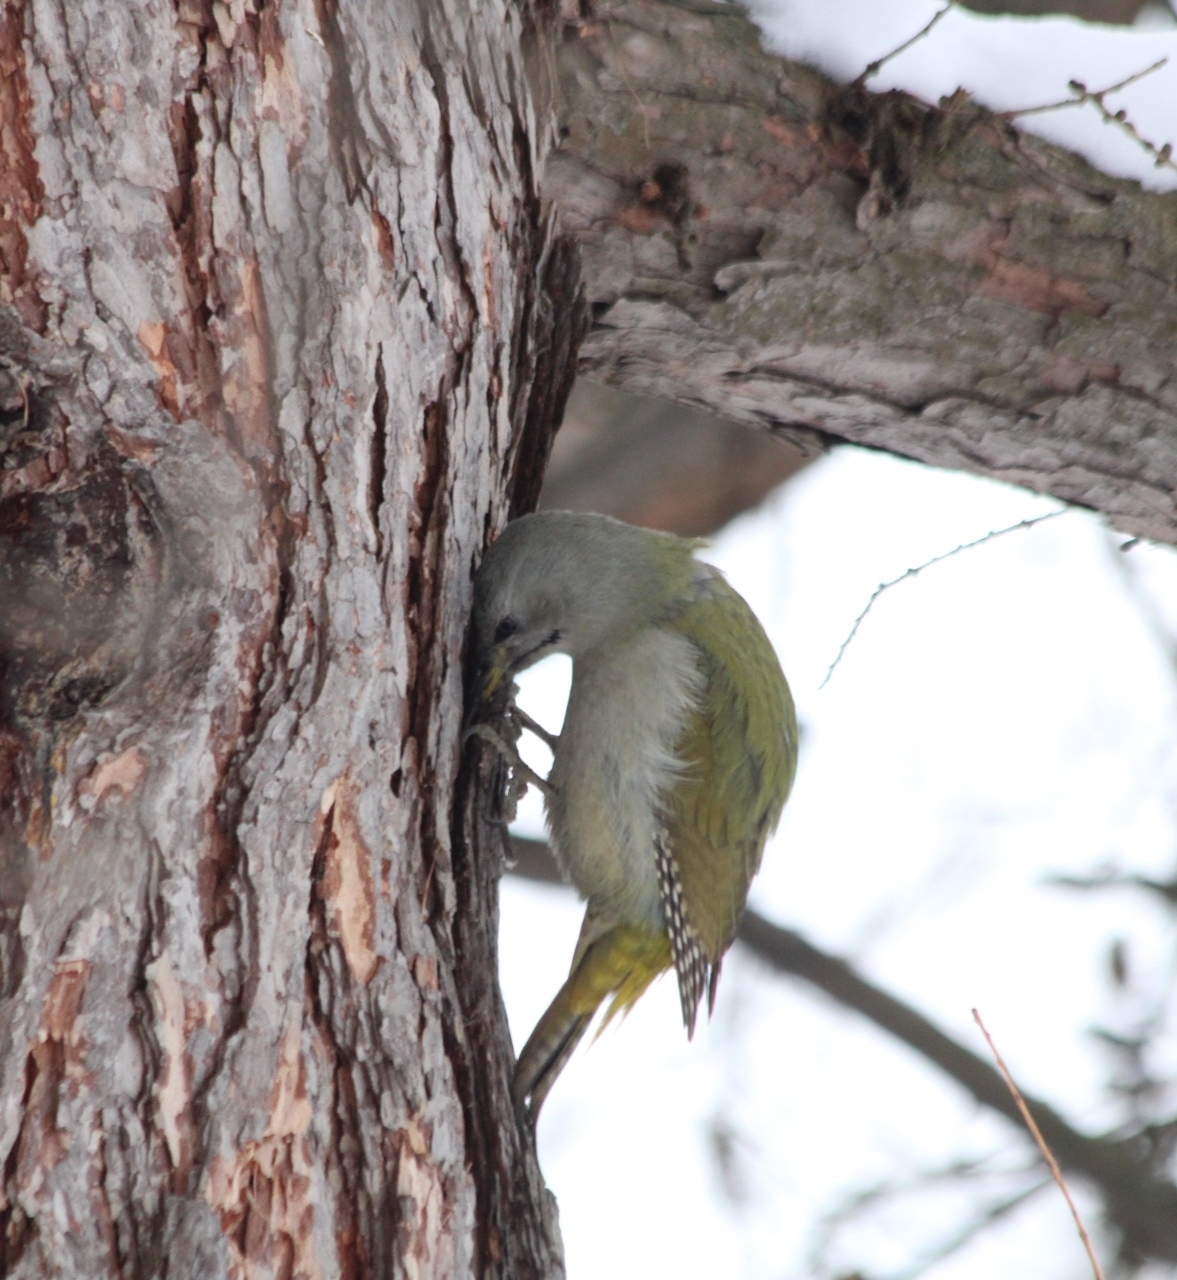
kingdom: Animalia
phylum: Chordata
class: Aves
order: Piciformes
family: Picidae
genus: Picus
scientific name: Picus canus
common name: Grey-headed woodpecker
